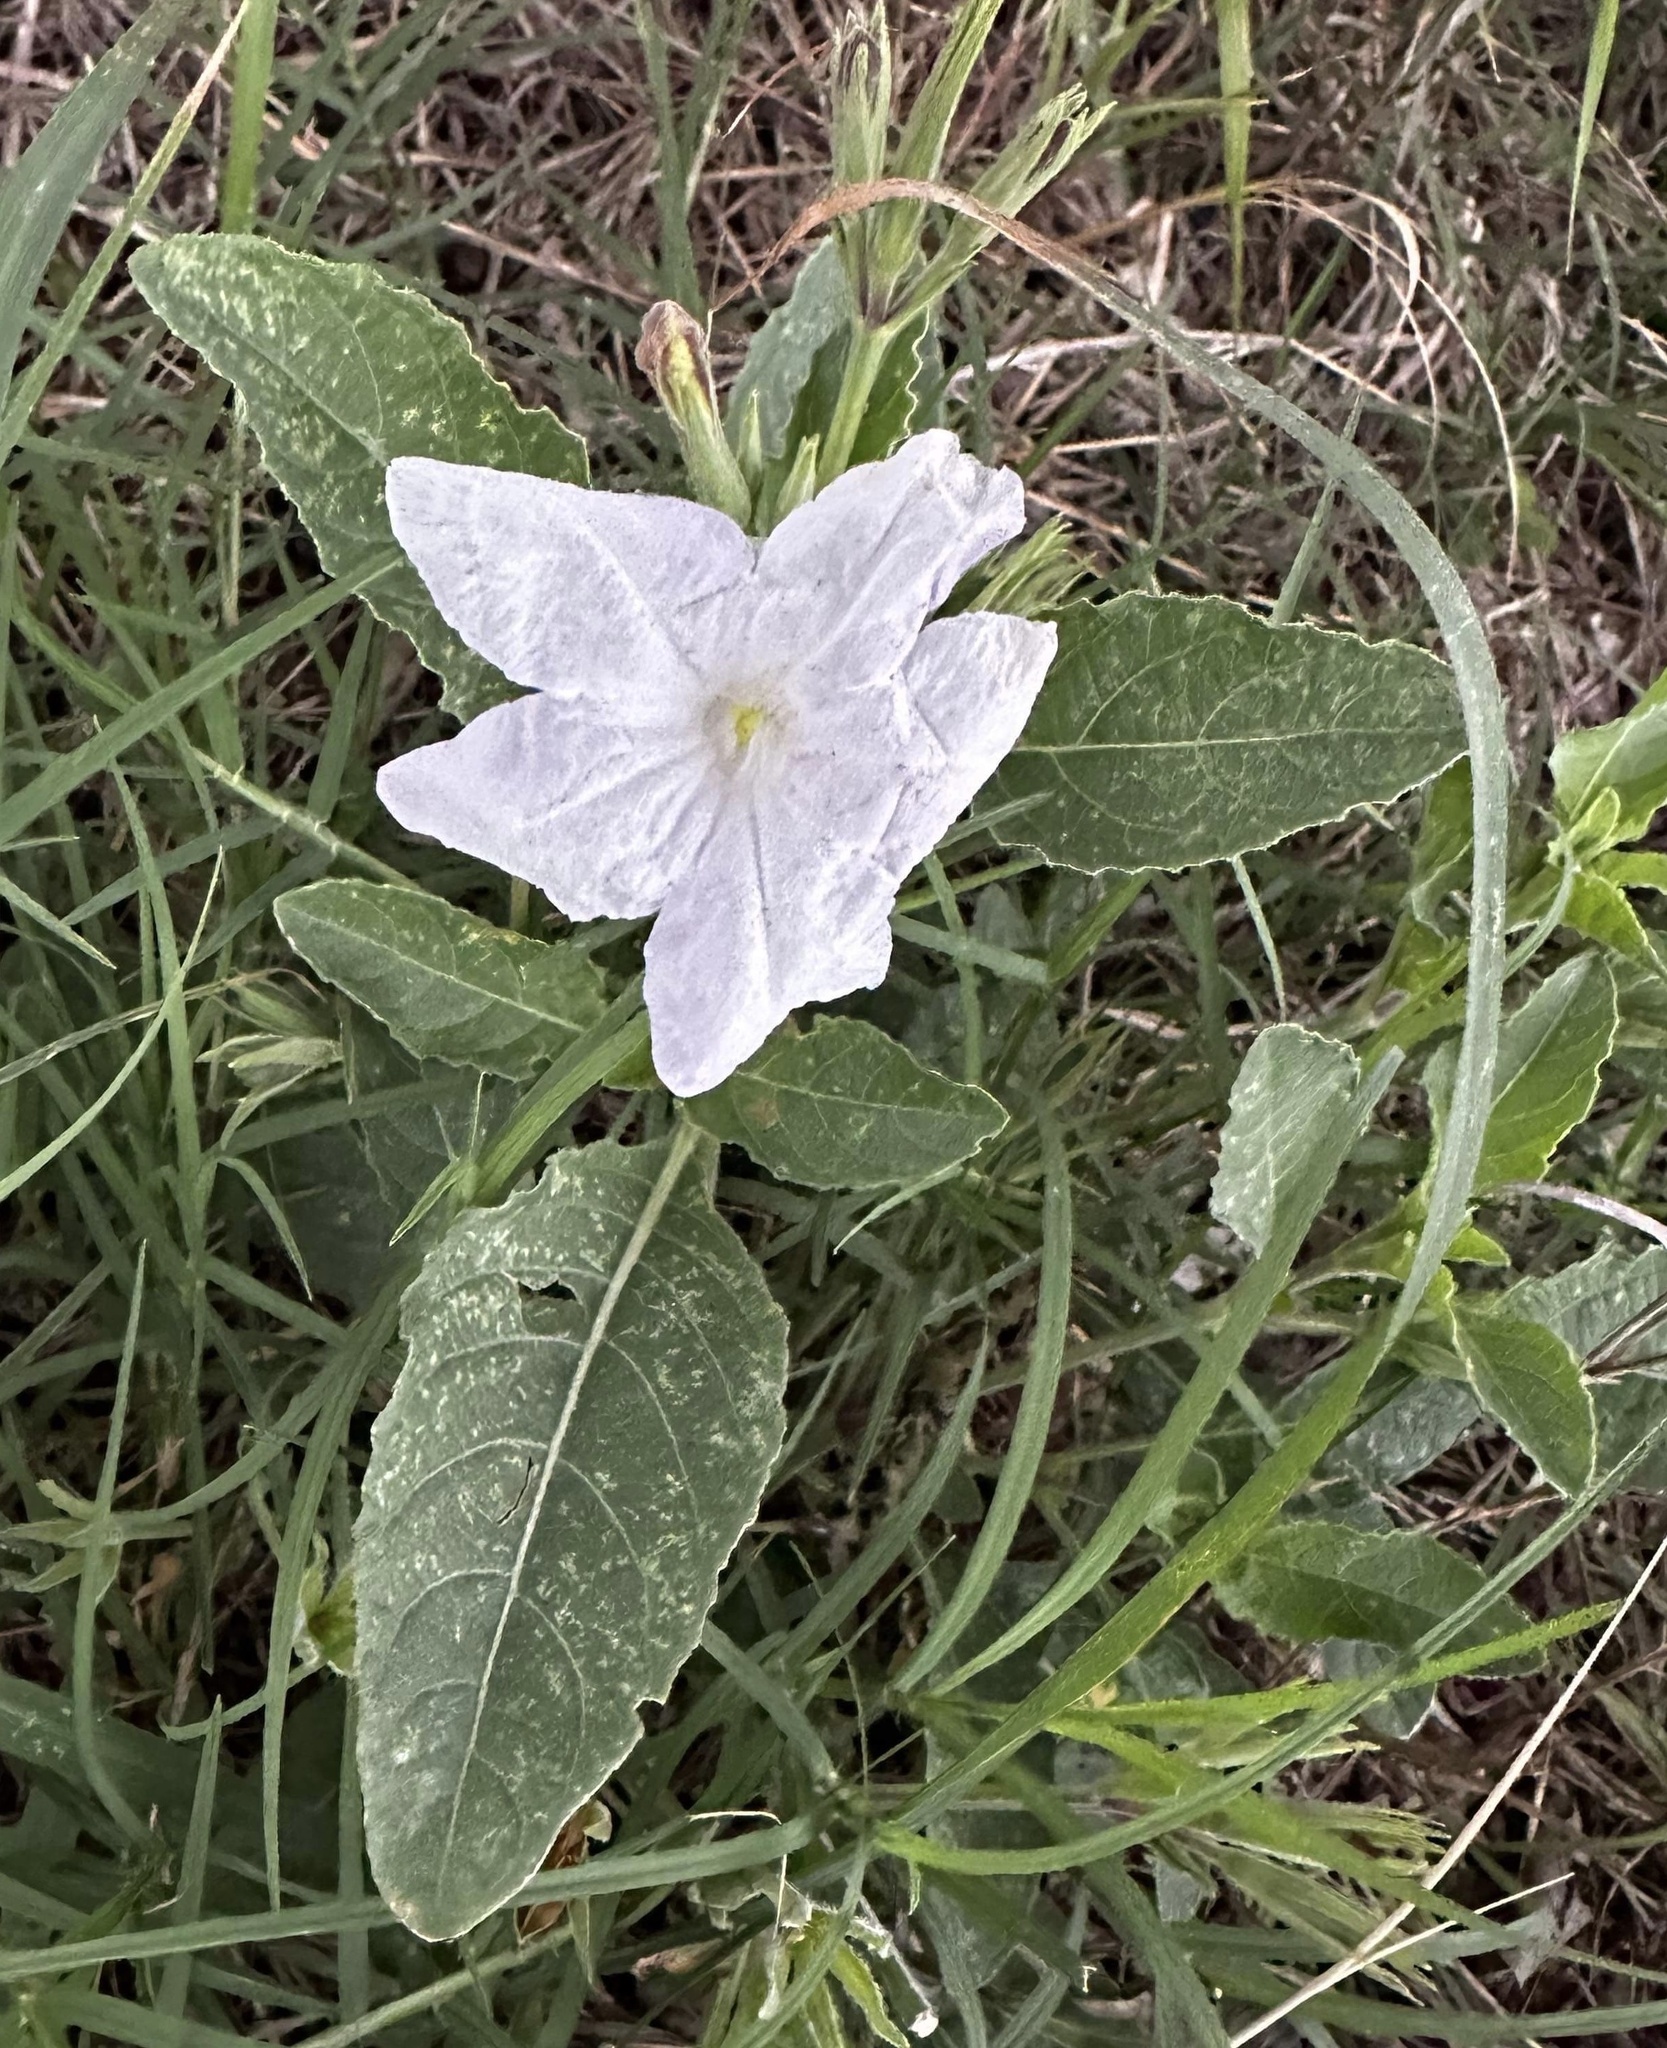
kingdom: Plantae
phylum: Tracheophyta
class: Magnoliopsida
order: Lamiales
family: Acanthaceae
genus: Ruellia
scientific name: Ruellia metziae
